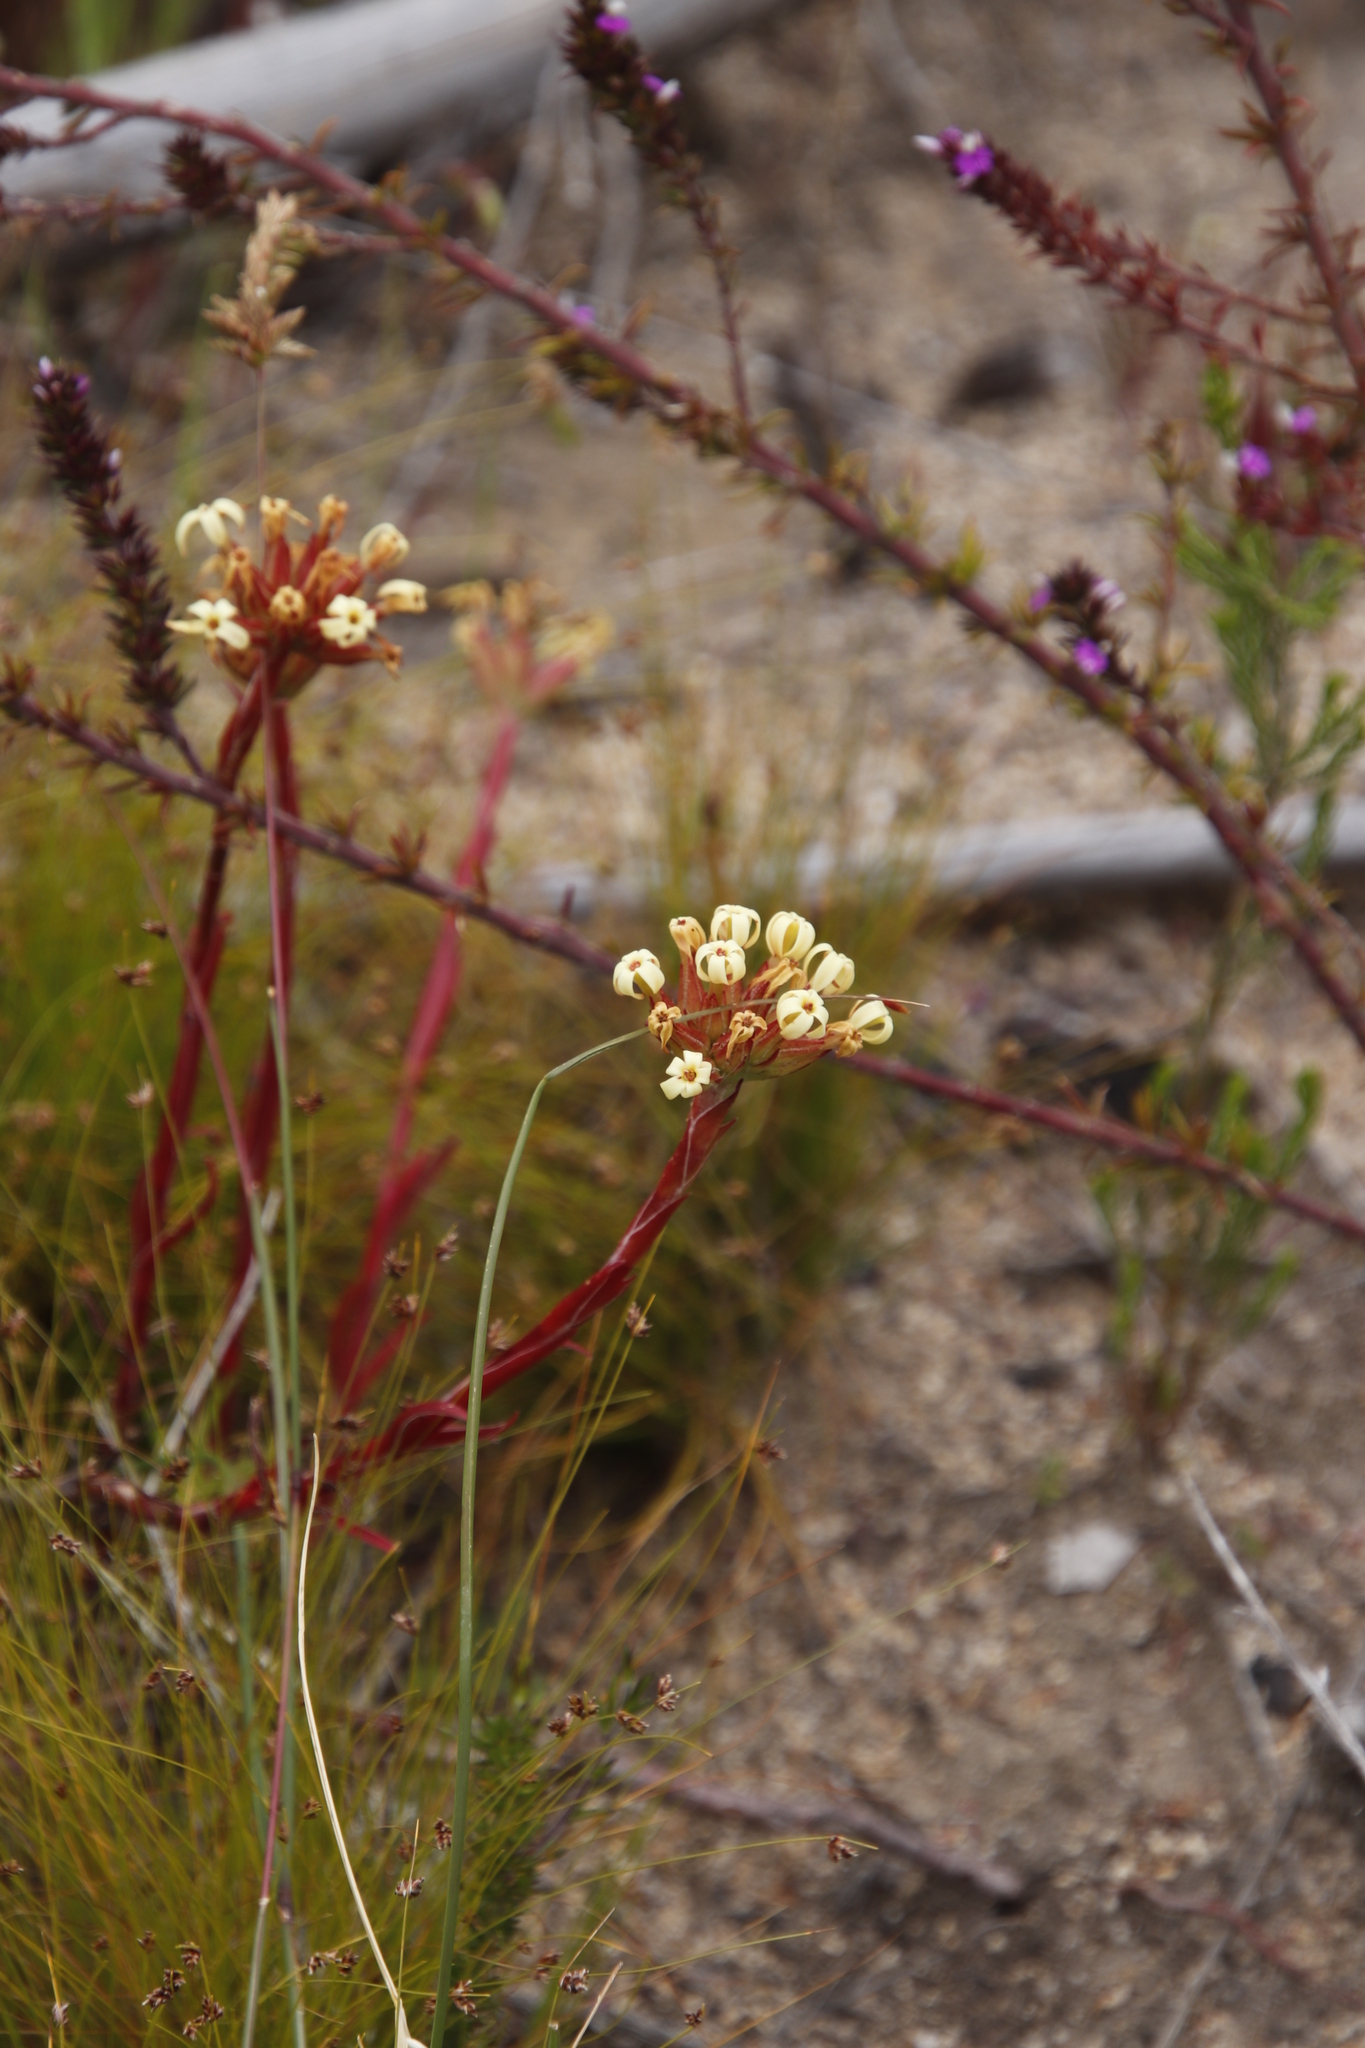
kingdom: Plantae
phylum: Tracheophyta
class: Magnoliopsida
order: Saxifragales
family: Crassulaceae
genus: Crassula
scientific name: Crassula fascicularis
